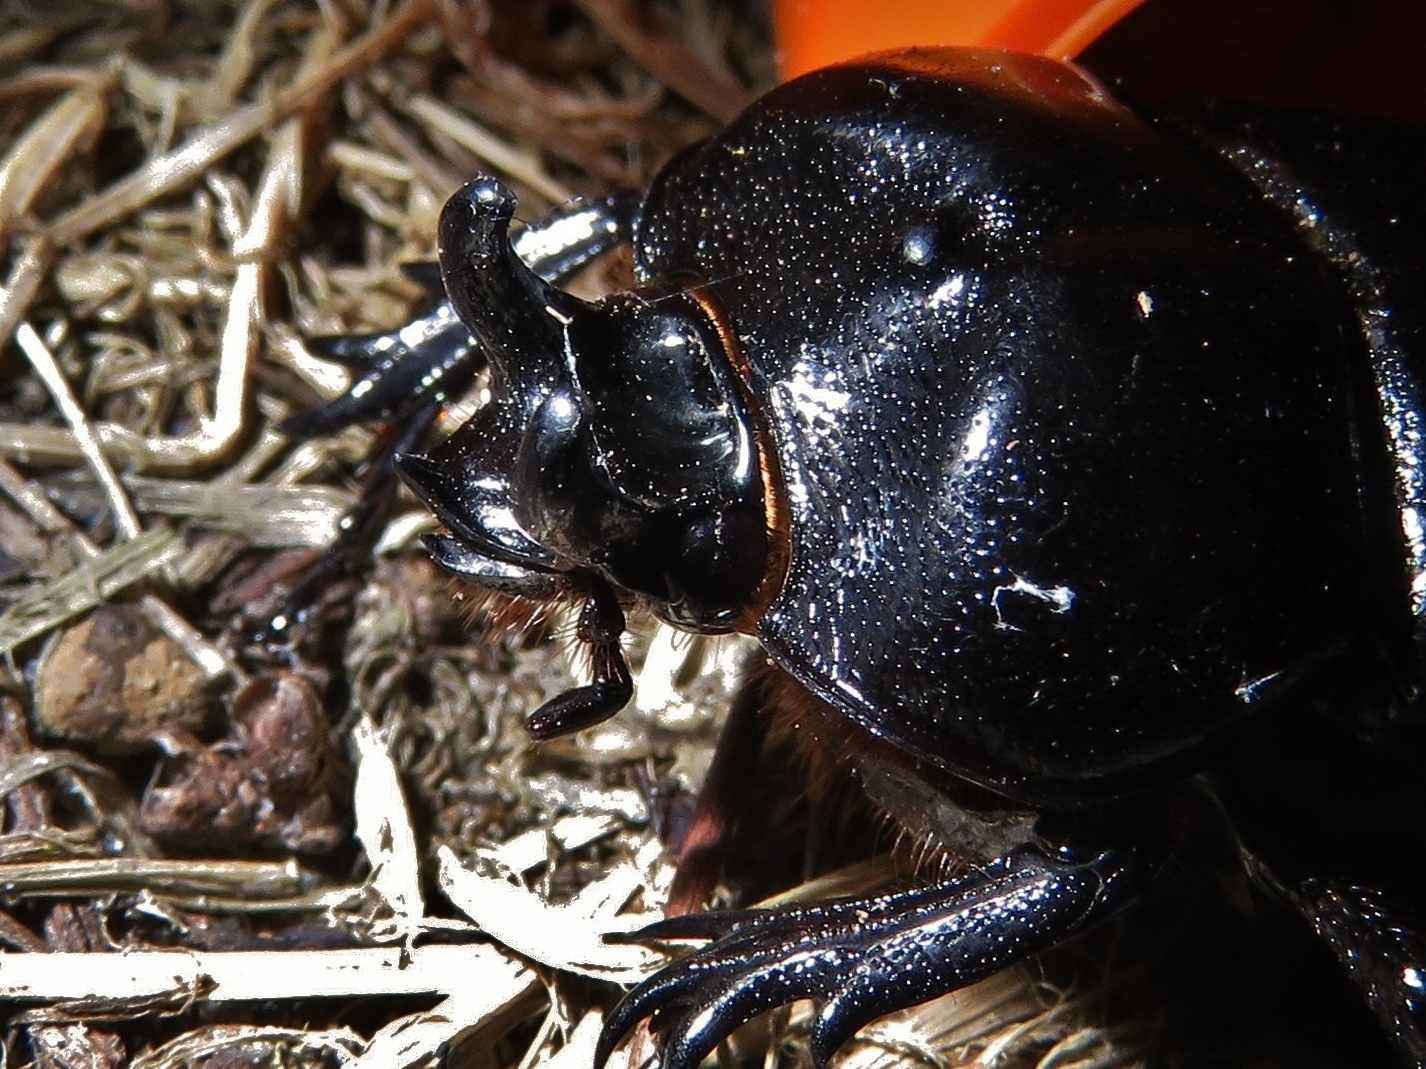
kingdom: Animalia
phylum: Arthropoda
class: Insecta
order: Coleoptera
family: Scarabaeidae
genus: Phileurus
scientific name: Phileurus truncatus
